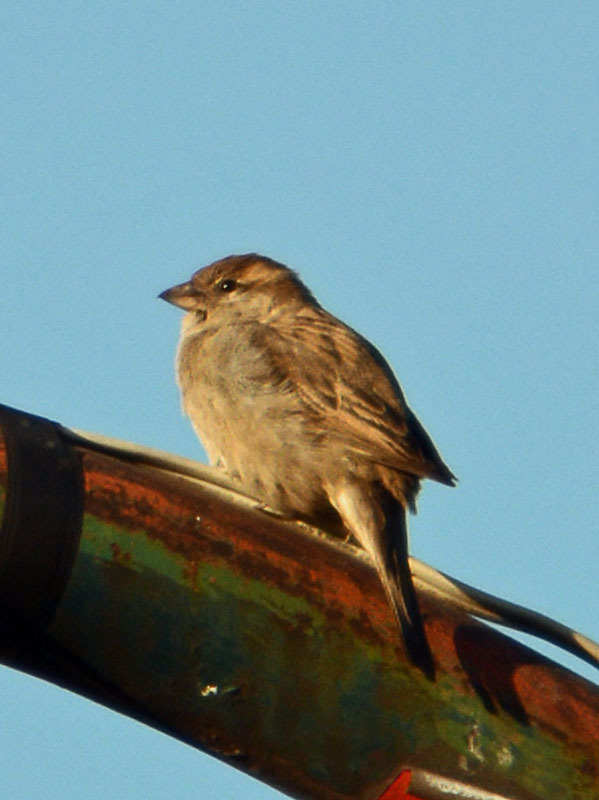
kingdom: Animalia
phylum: Chordata
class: Aves
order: Passeriformes
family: Passeridae
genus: Passer
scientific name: Passer domesticus
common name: House sparrow
